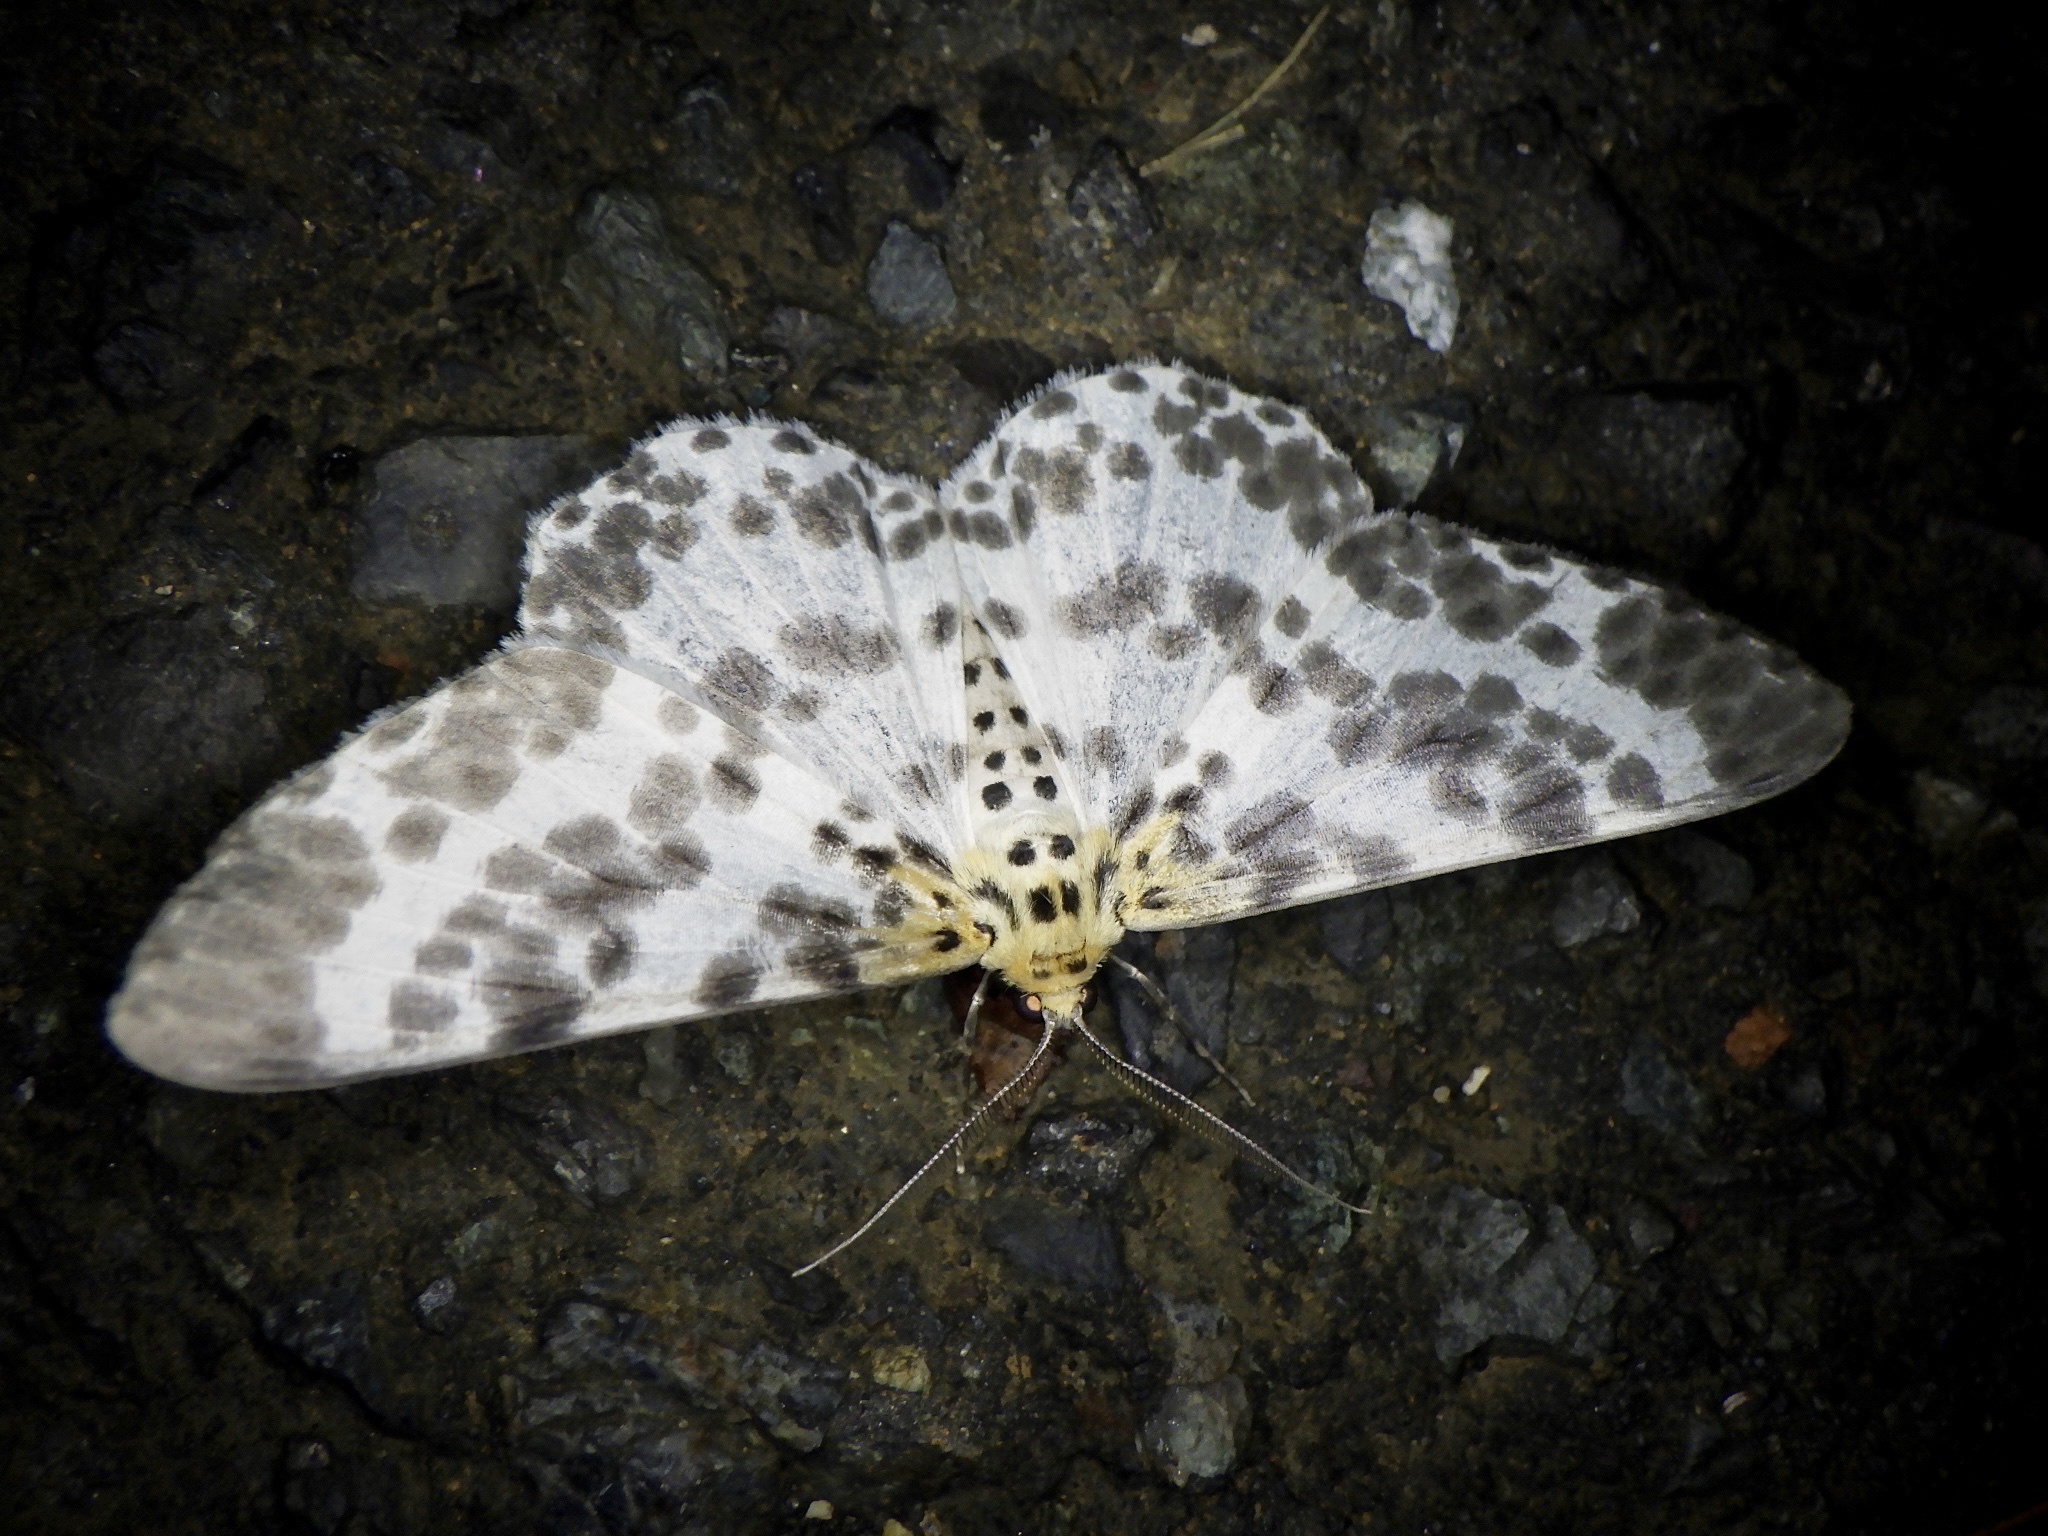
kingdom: Animalia
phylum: Arthropoda
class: Insecta
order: Lepidoptera
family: Geometridae
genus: Metabraxas
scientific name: Metabraxas clerica
